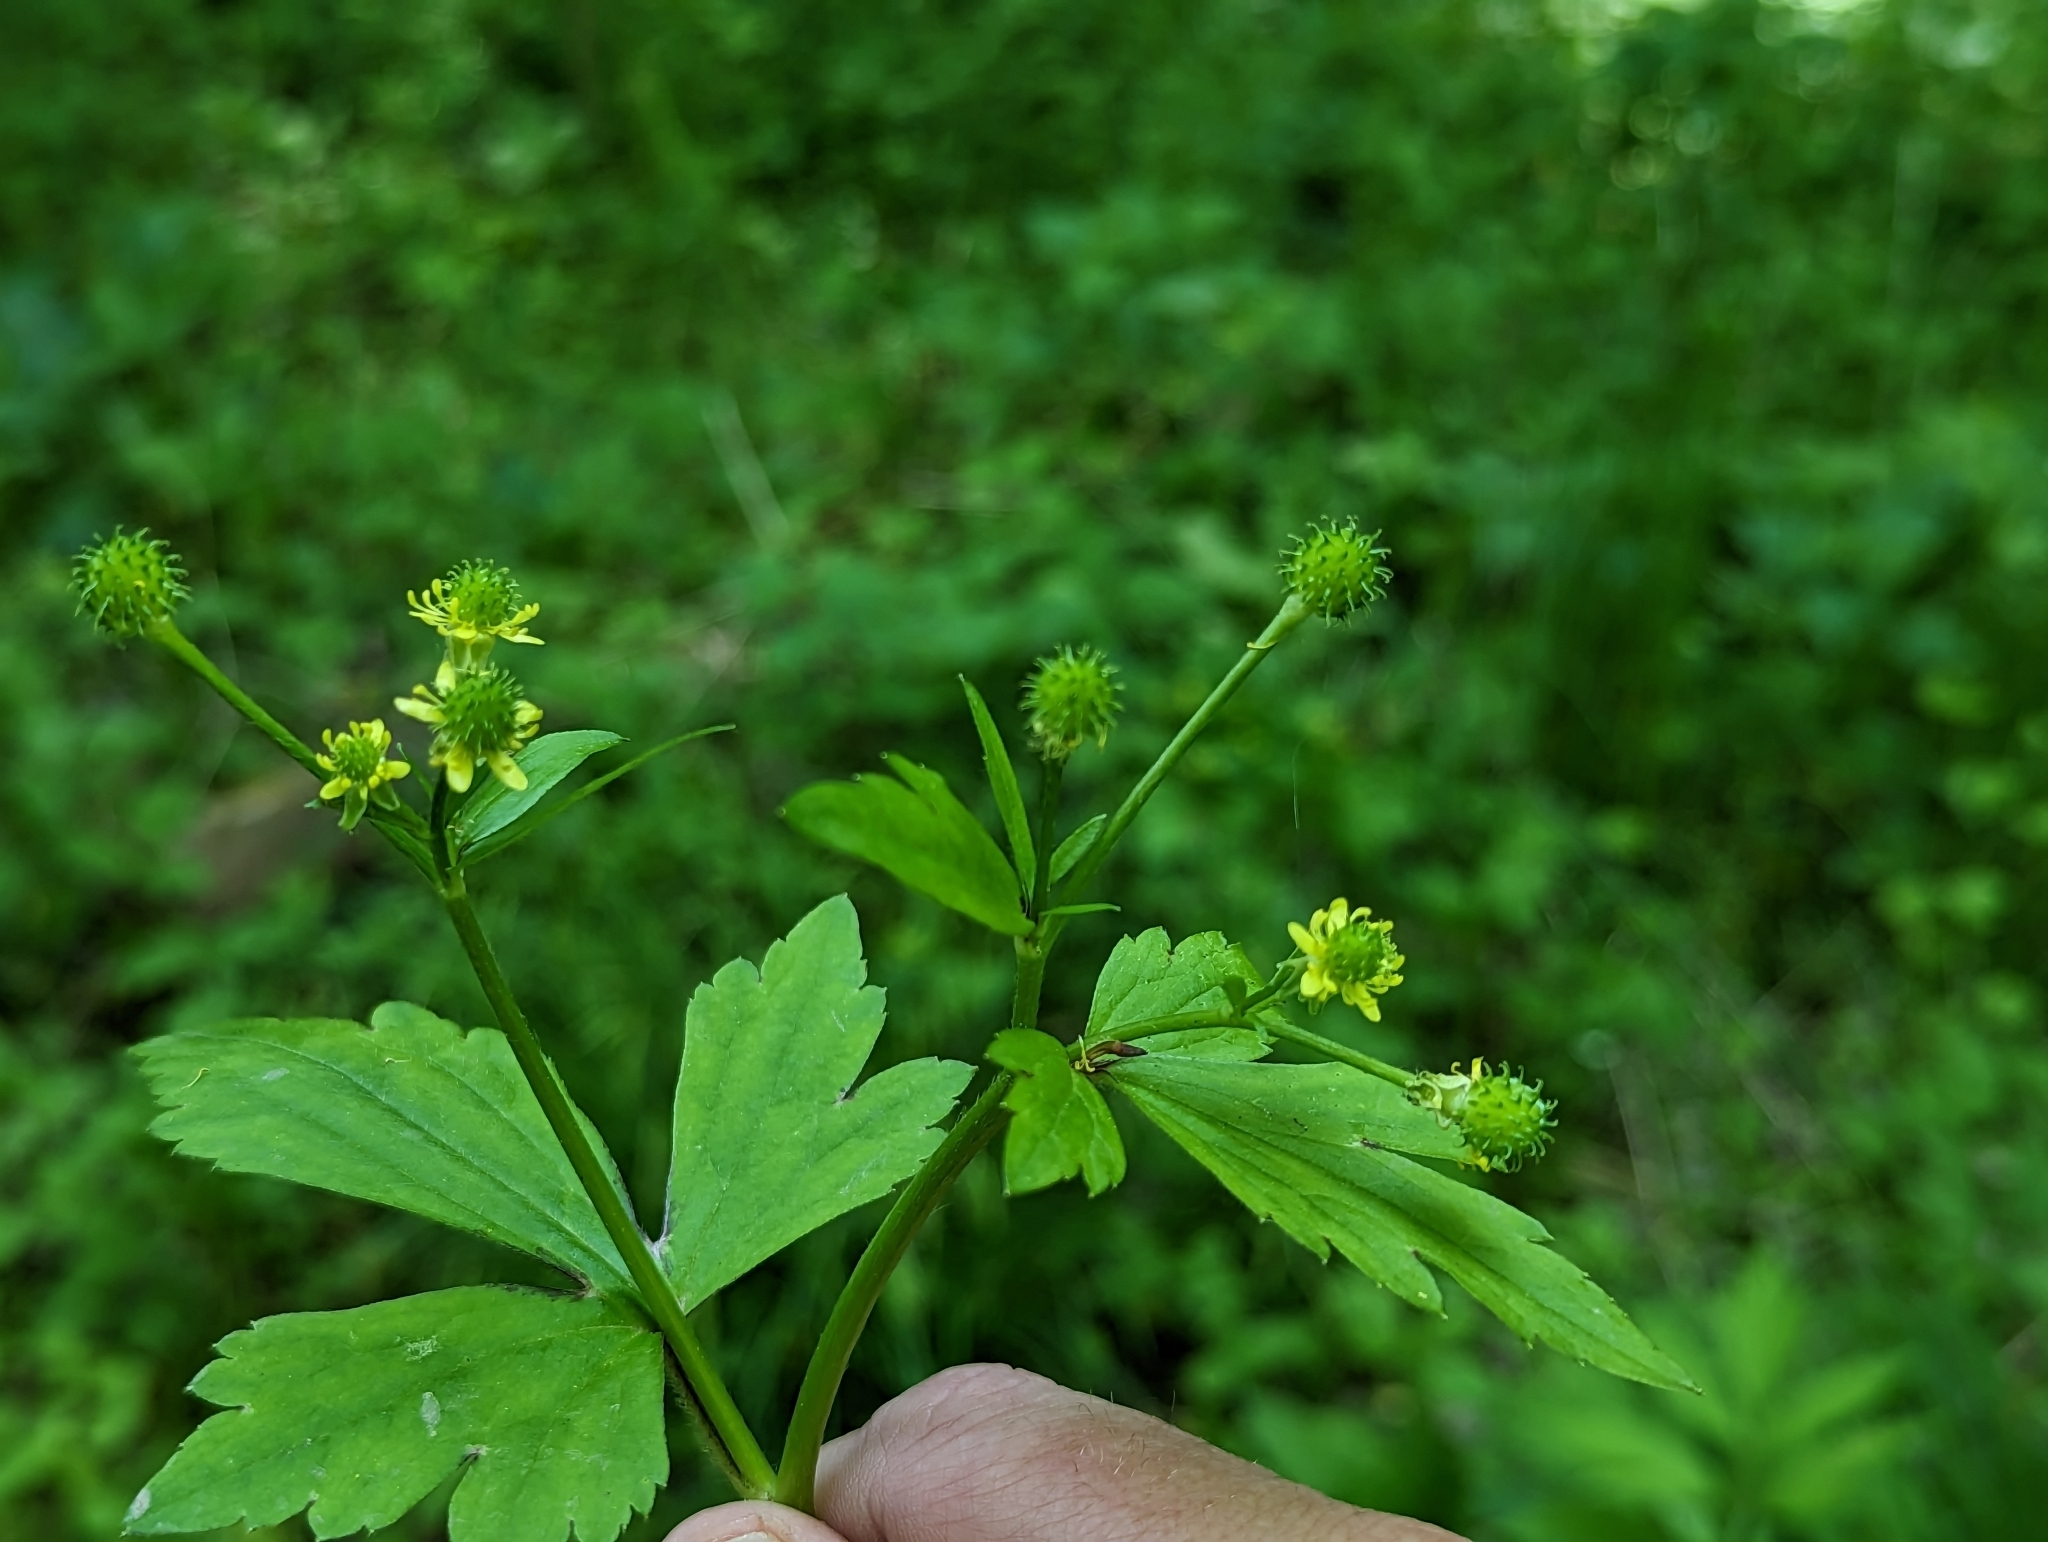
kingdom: Plantae
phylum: Tracheophyta
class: Magnoliopsida
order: Ranunculales
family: Ranunculaceae
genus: Ranunculus
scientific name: Ranunculus recurvatus
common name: Blisterwort
